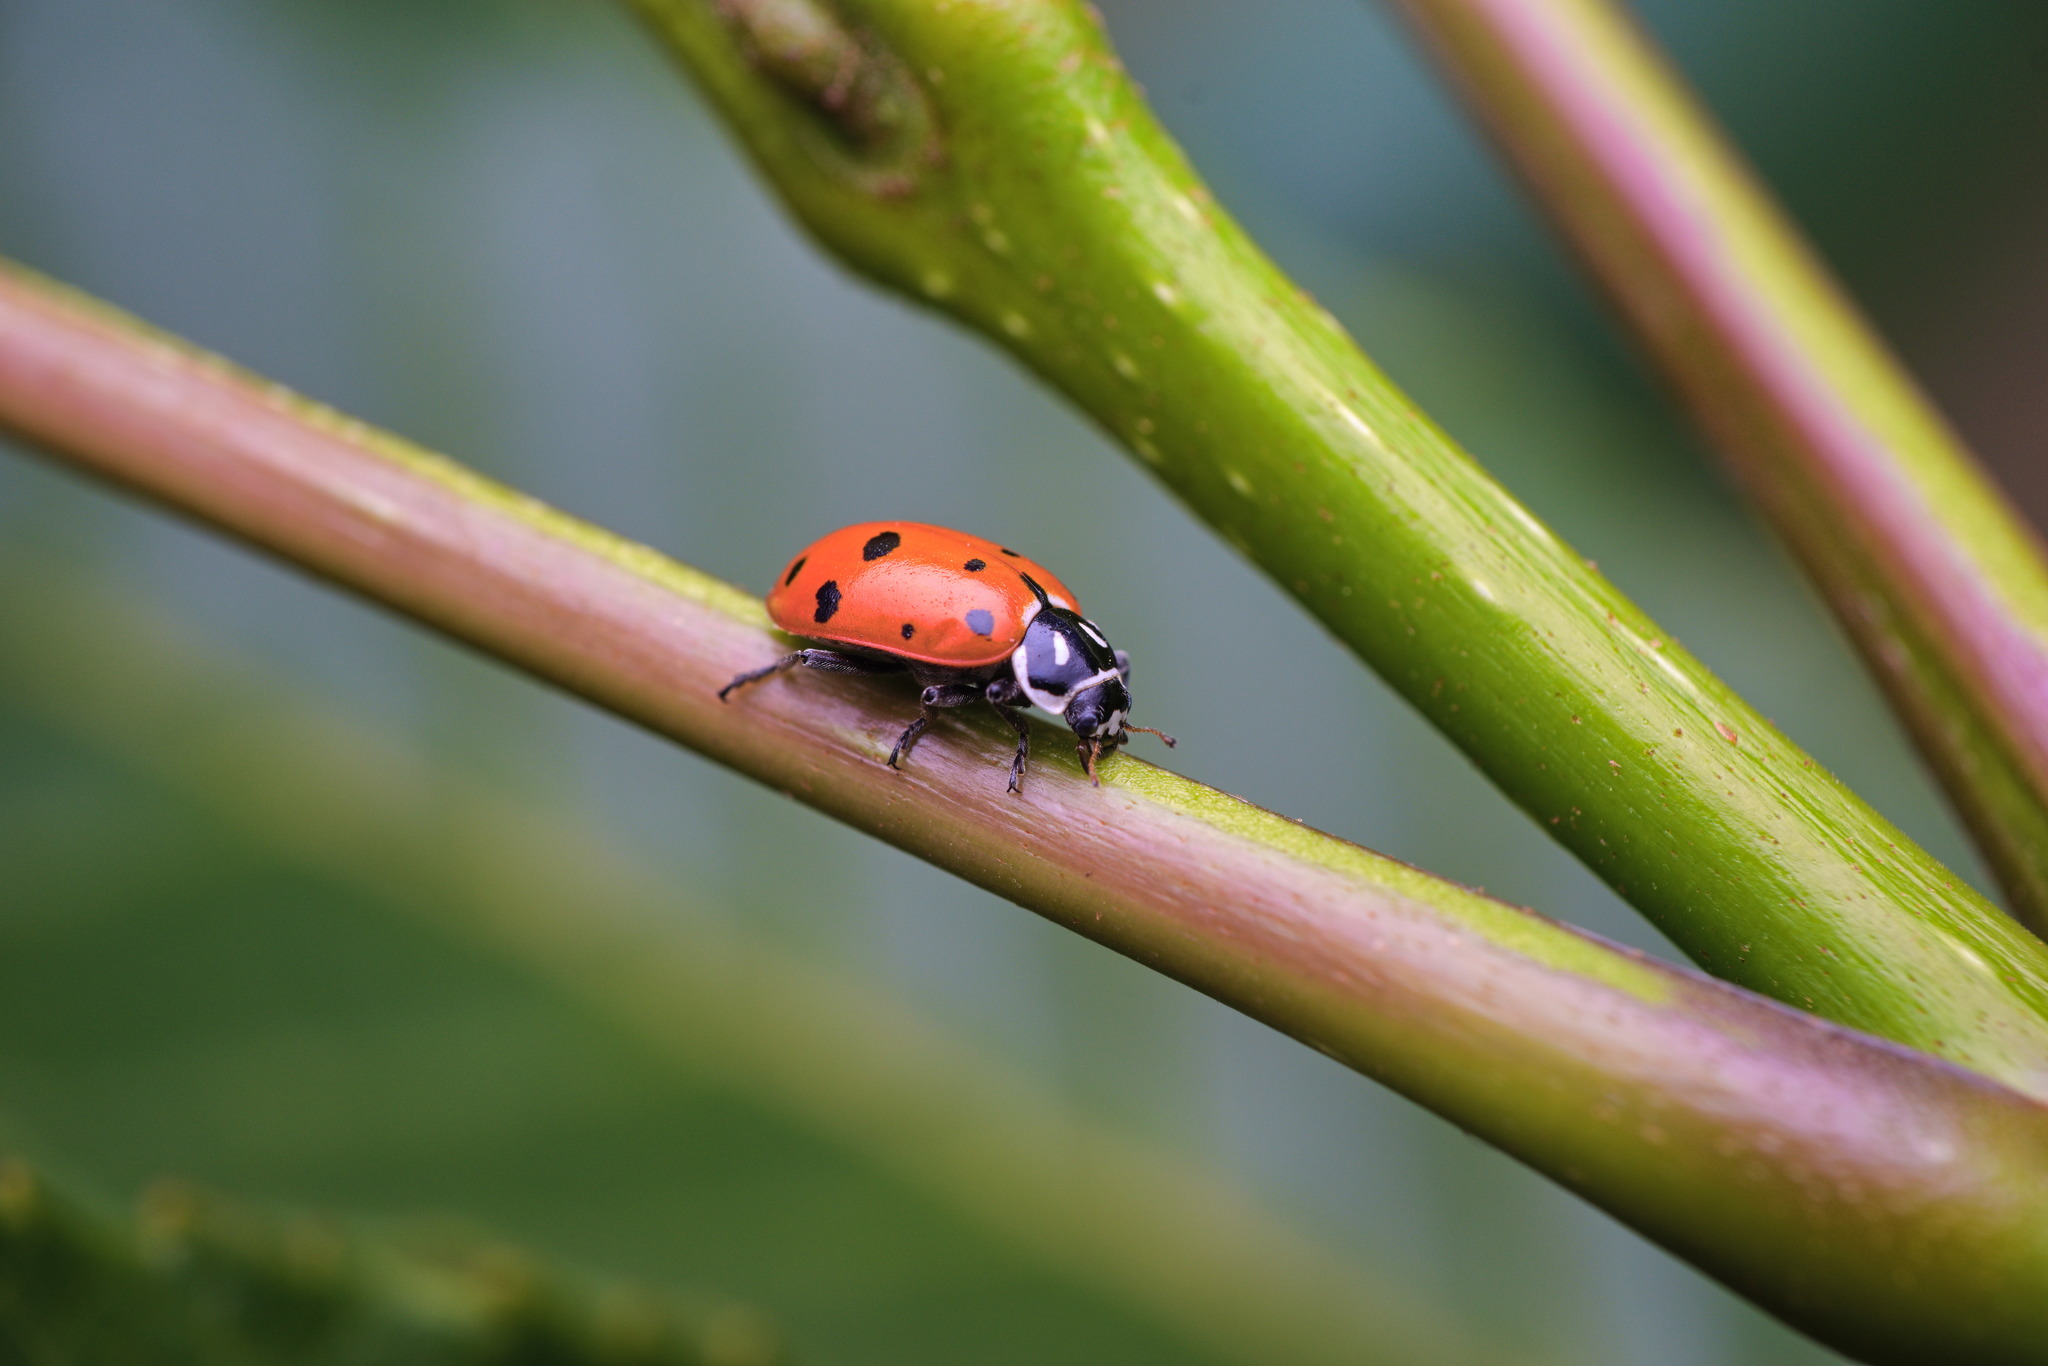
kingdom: Animalia
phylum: Arthropoda
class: Insecta
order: Coleoptera
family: Coccinellidae
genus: Hippodamia
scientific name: Hippodamia convergens
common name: Convergent lady beetle
